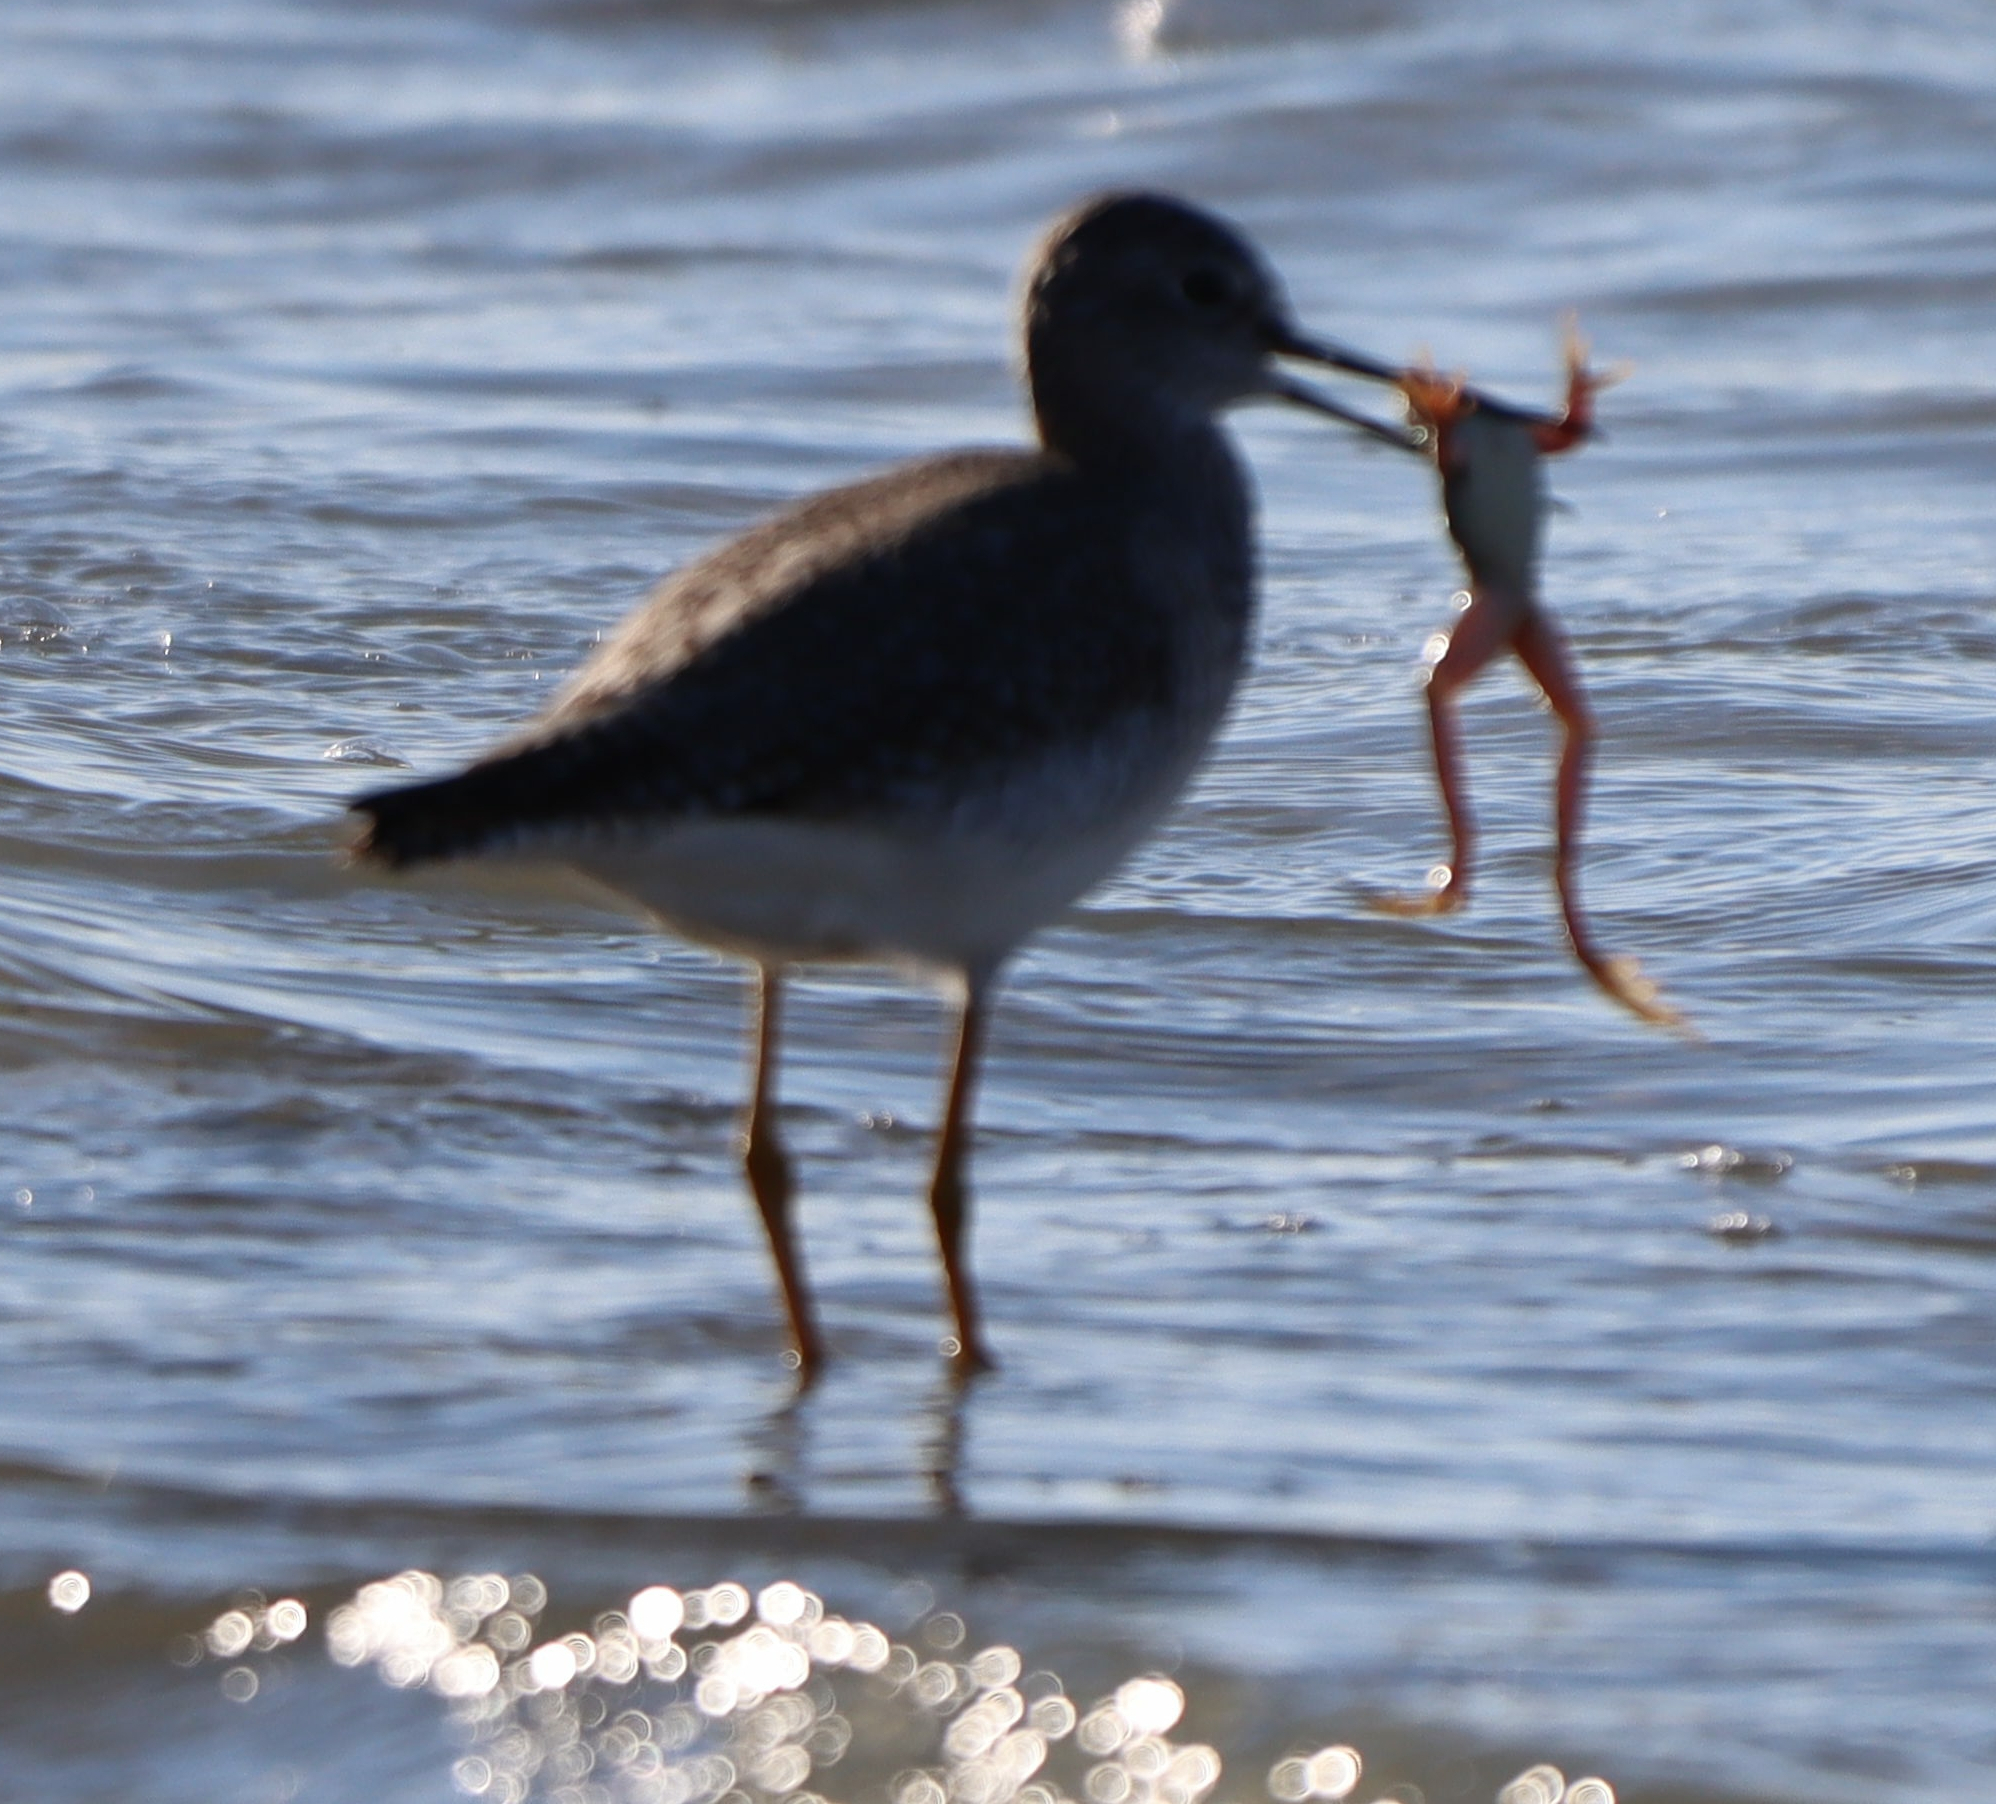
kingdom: Animalia
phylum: Chordata
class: Aves
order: Charadriiformes
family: Scolopacidae
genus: Tringa
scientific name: Tringa melanoleuca
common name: Greater yellowlegs
